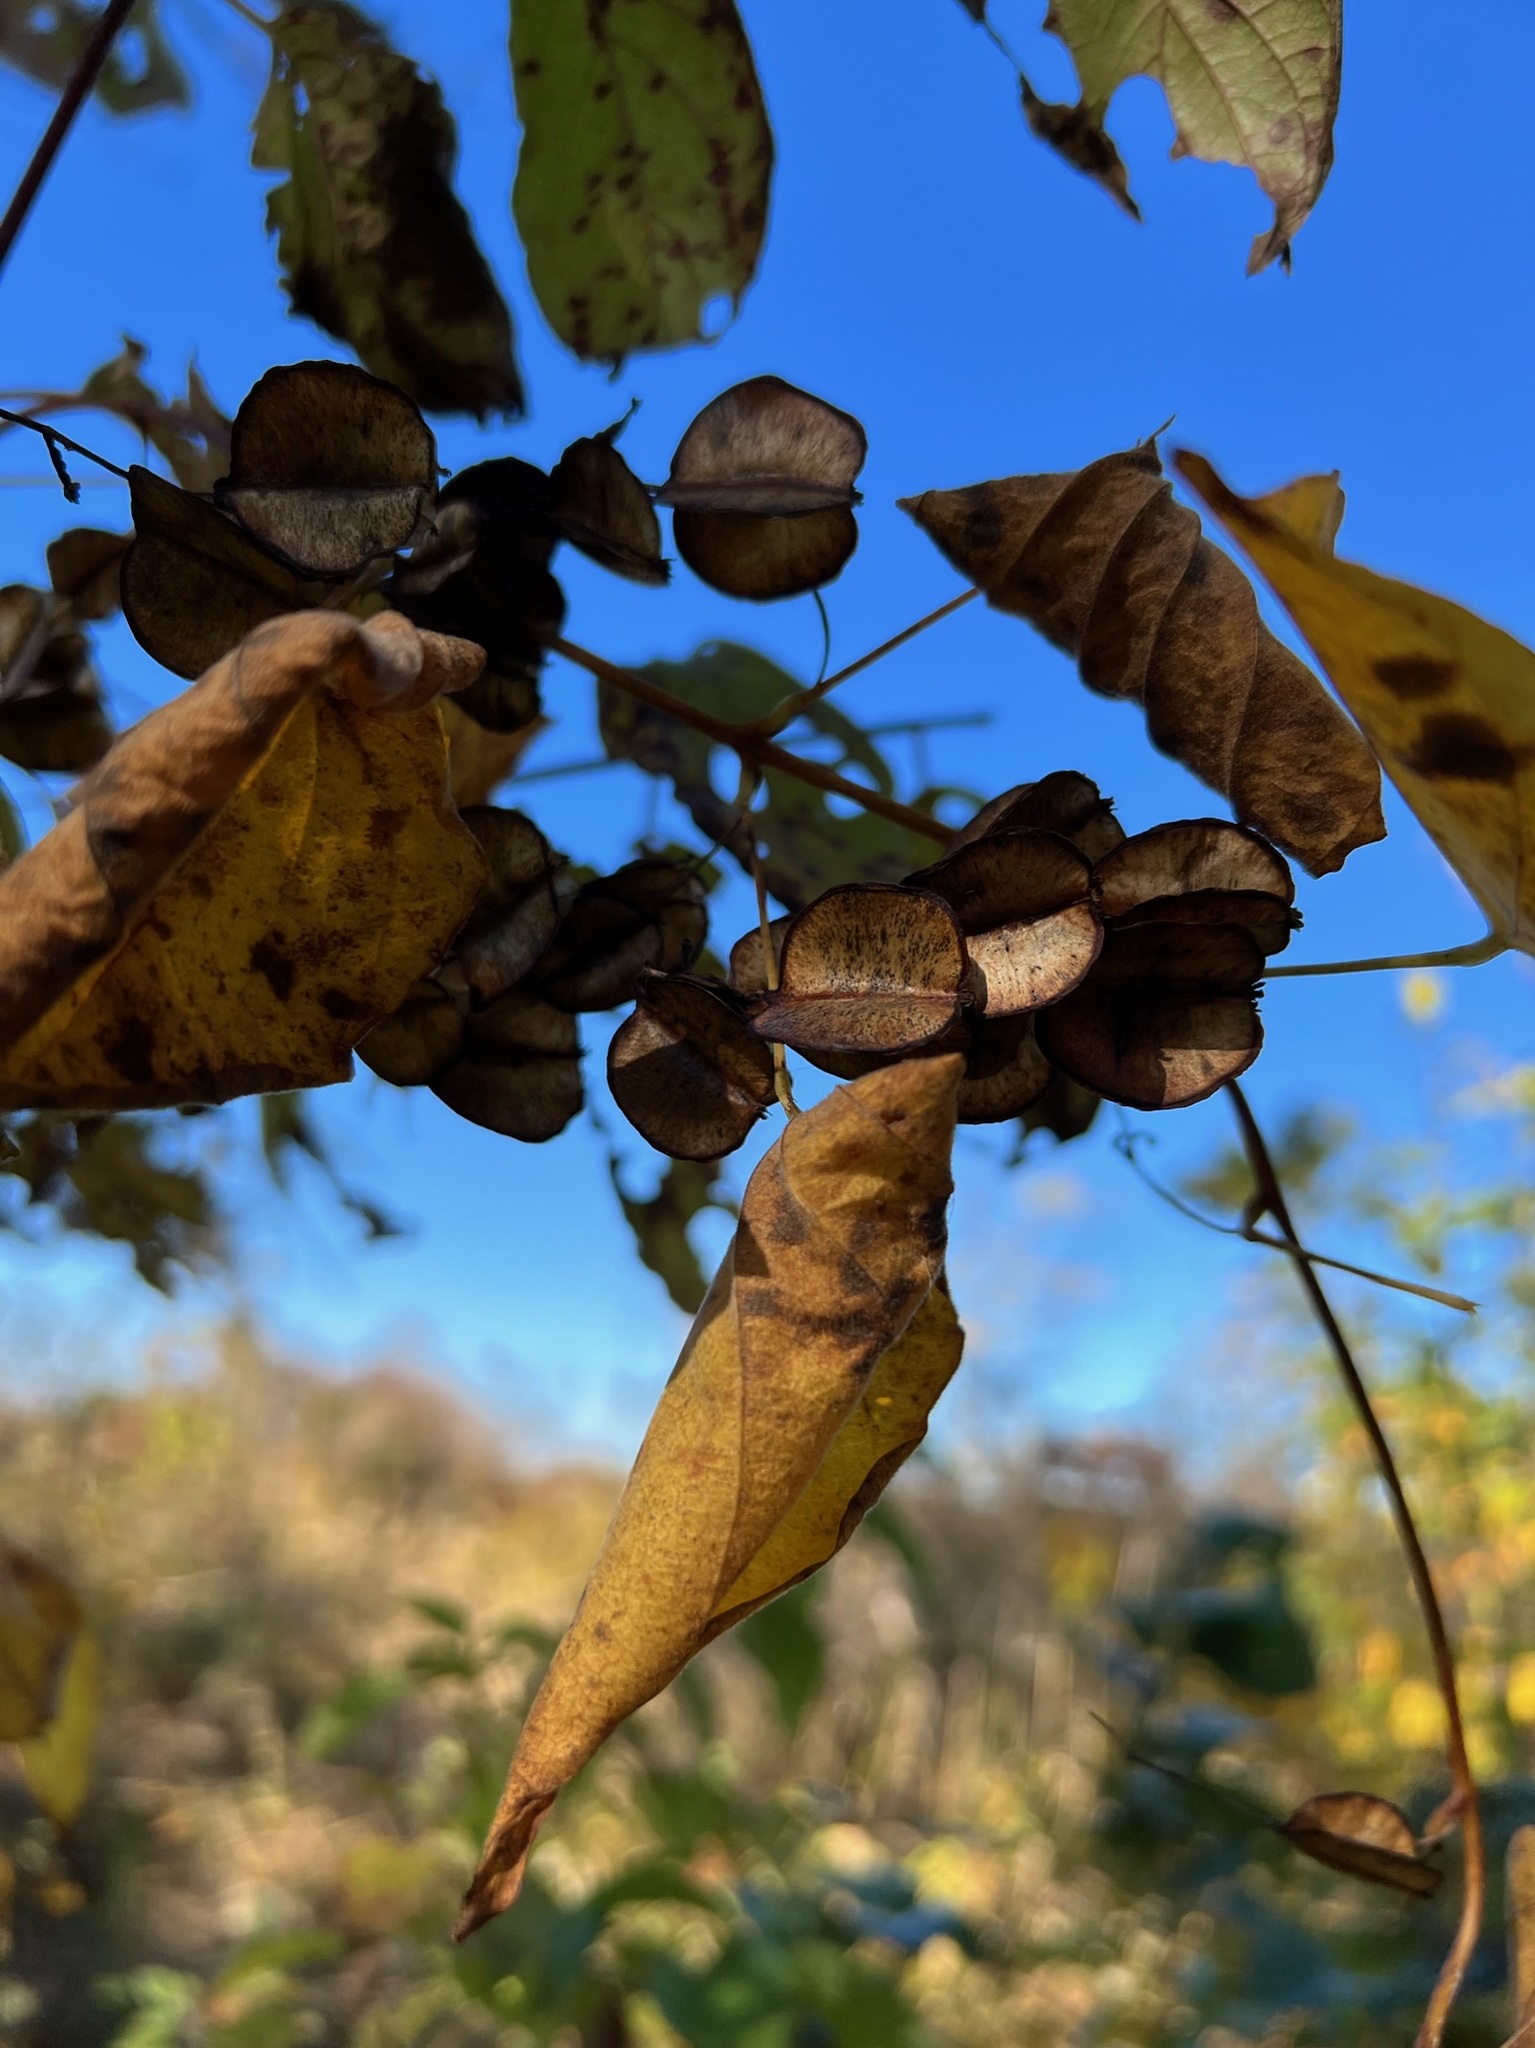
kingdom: Plantae
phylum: Tracheophyta
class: Liliopsida
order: Dioscoreales
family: Dioscoreaceae
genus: Dioscorea
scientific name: Dioscorea villosa
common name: Wild yam
